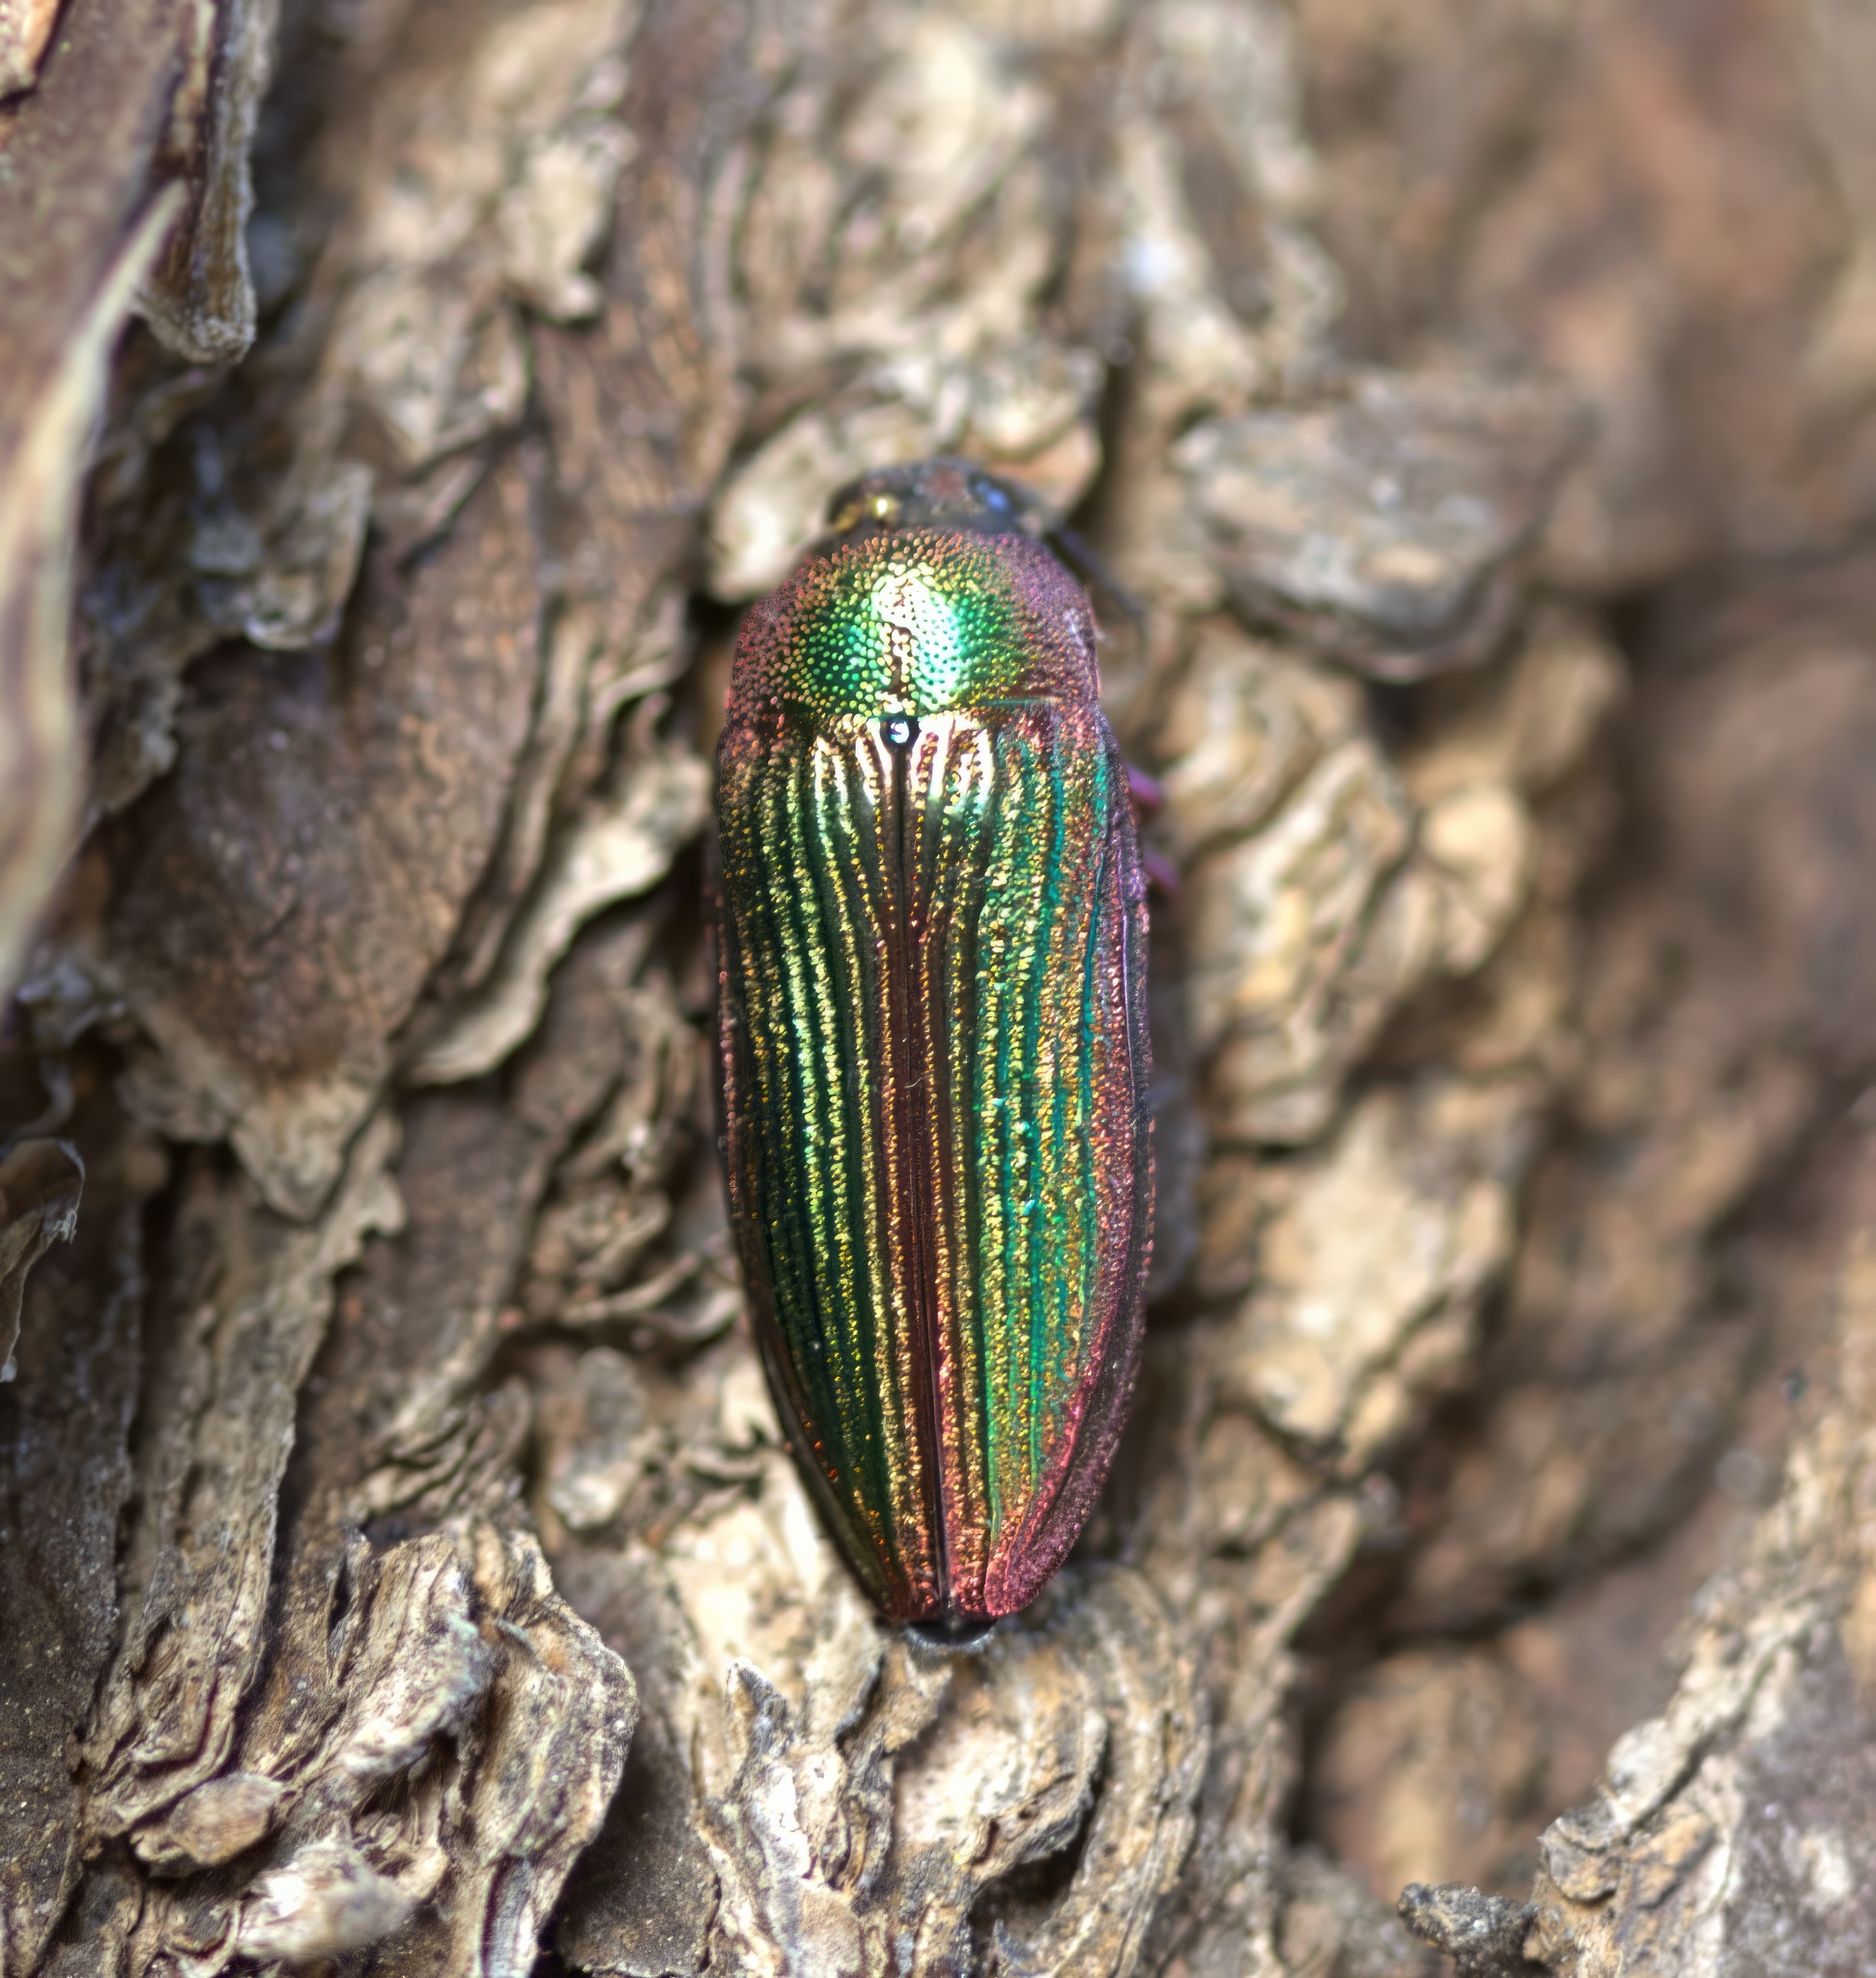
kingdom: Animalia
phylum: Arthropoda
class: Insecta
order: Coleoptera
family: Buprestidae
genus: Buprestis
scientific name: Buprestis intricata
